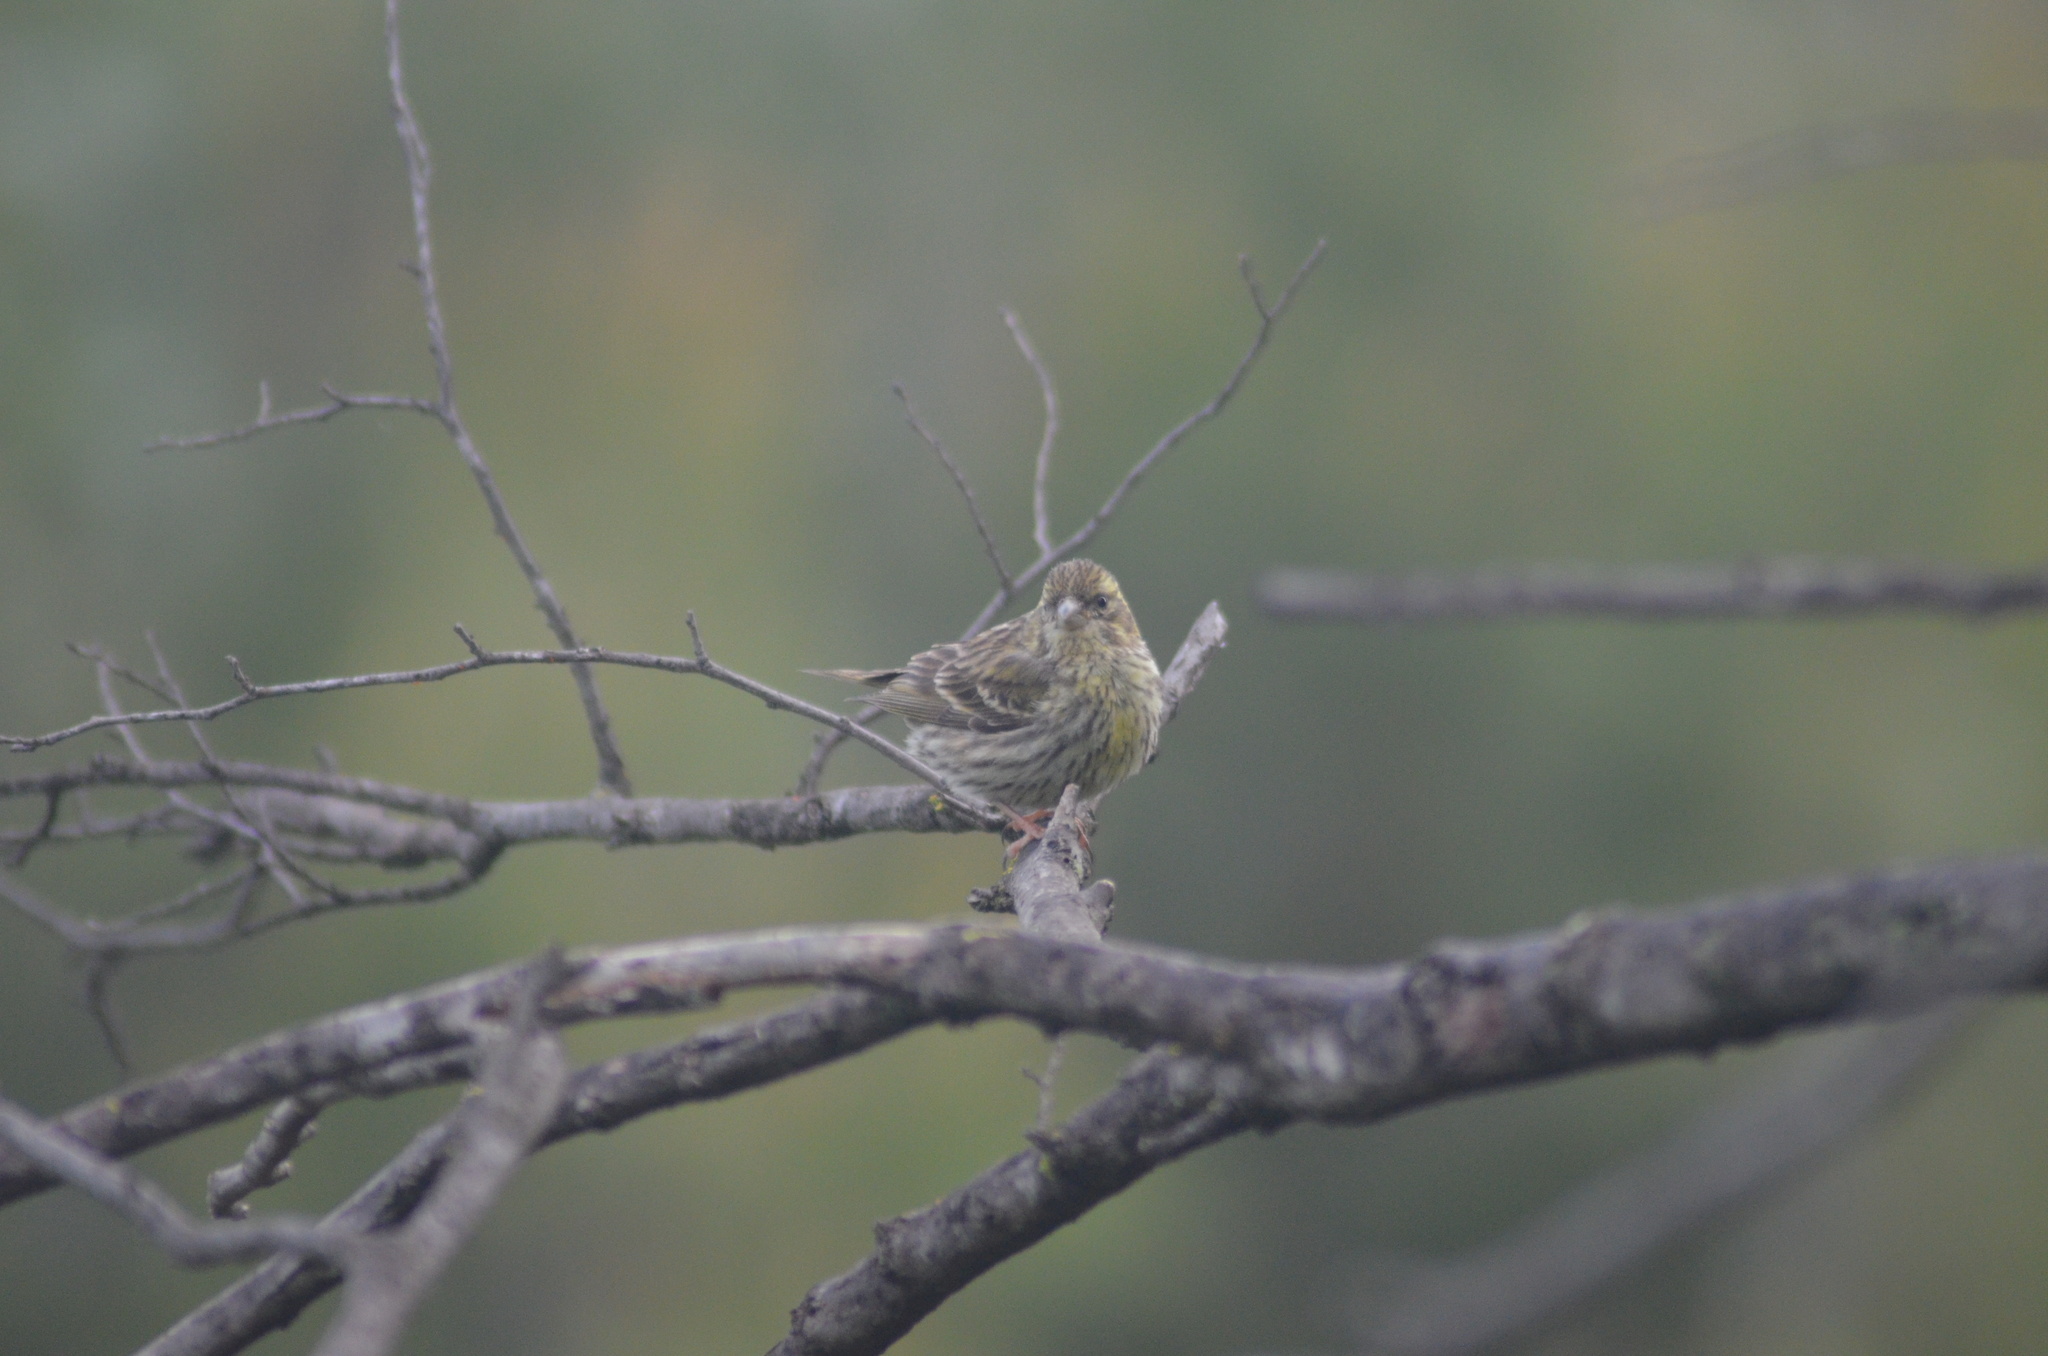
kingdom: Animalia
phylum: Chordata
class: Aves
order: Passeriformes
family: Fringillidae
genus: Serinus
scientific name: Serinus serinus
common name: European serin
